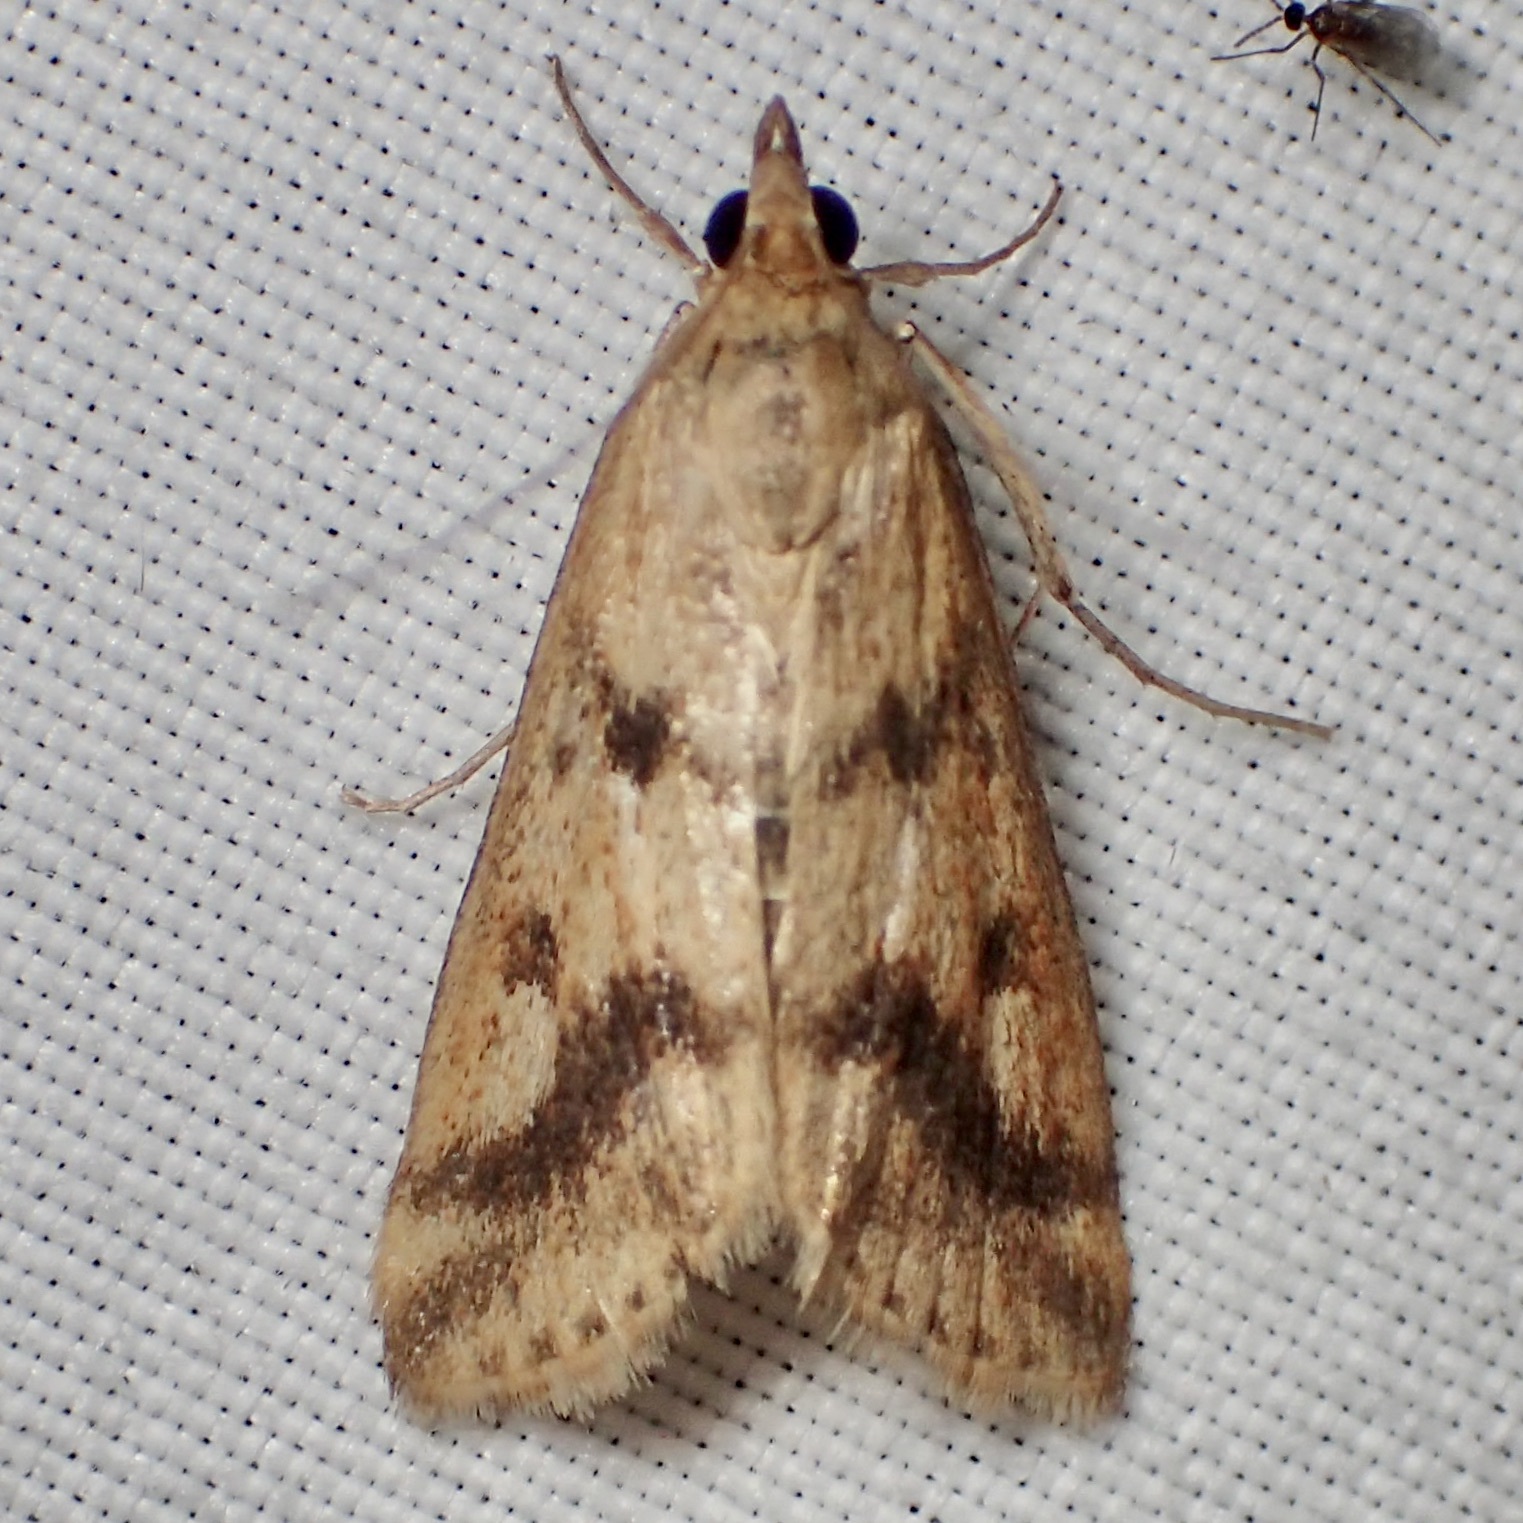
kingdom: Animalia
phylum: Arthropoda
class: Insecta
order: Lepidoptera
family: Crambidae
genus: Achyra
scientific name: Achyra bifidalis
